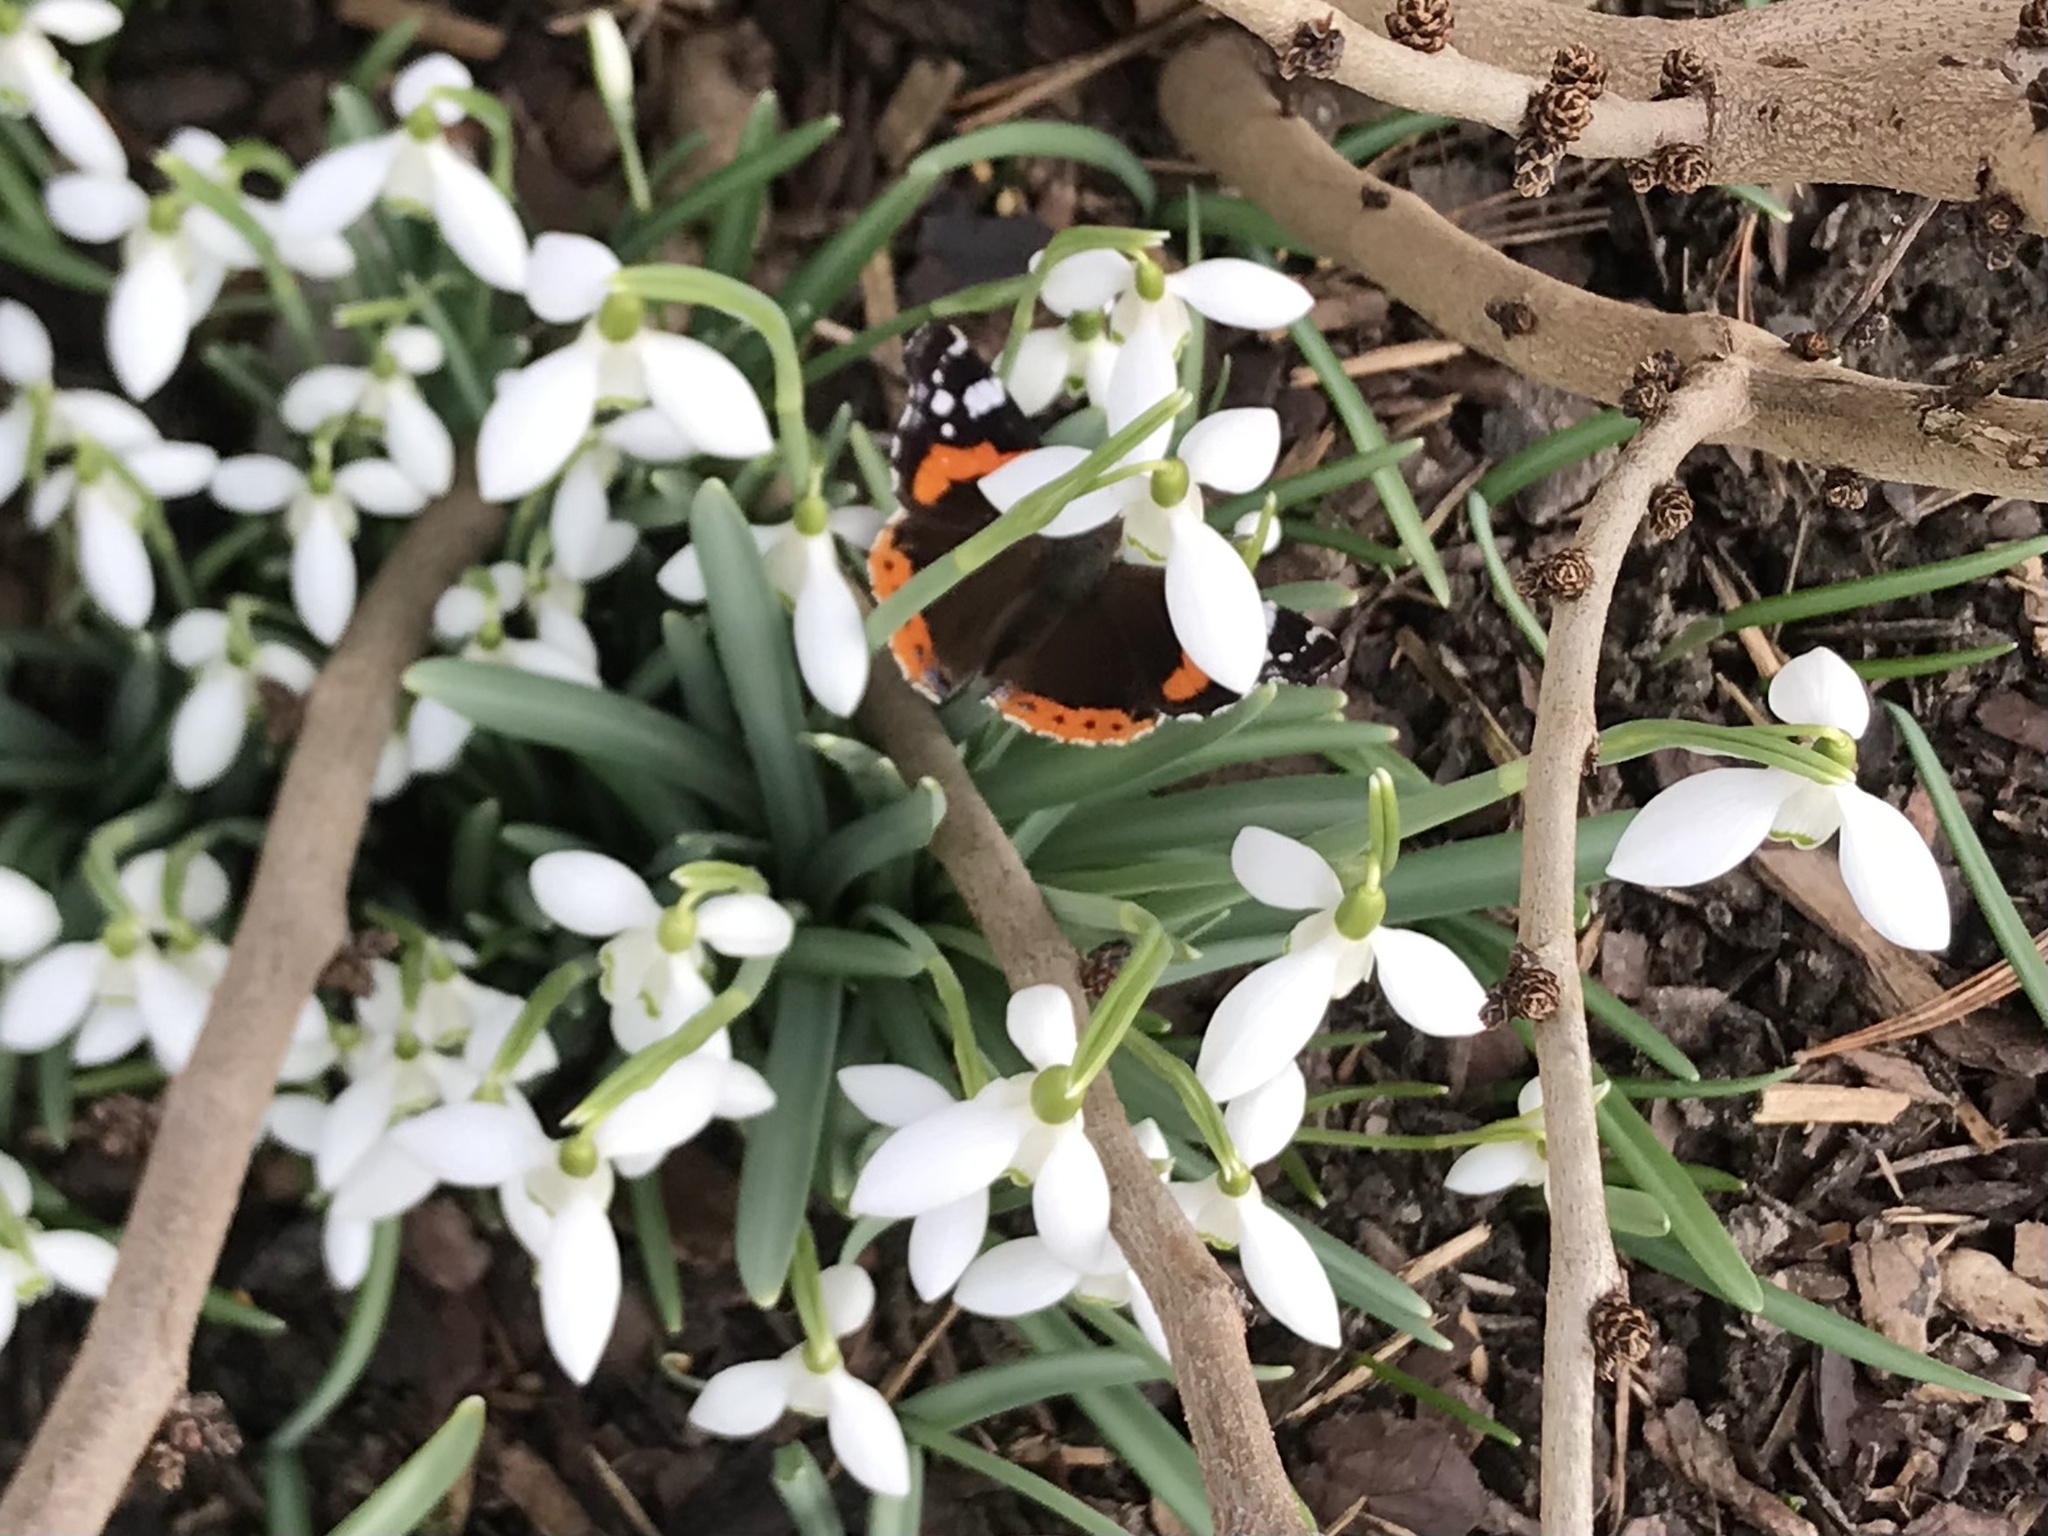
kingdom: Animalia
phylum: Arthropoda
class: Insecta
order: Lepidoptera
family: Nymphalidae
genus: Vanessa
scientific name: Vanessa atalanta
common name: Red admiral
